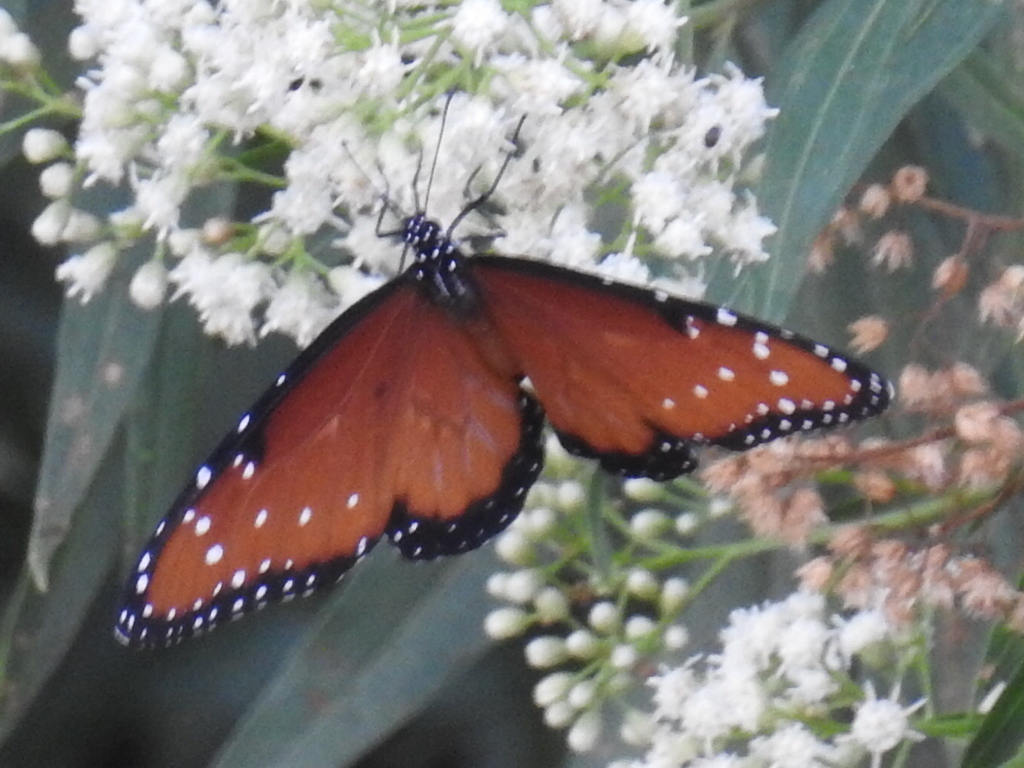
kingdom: Animalia
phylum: Arthropoda
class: Insecta
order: Lepidoptera
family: Nymphalidae
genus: Danaus
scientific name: Danaus gilippus
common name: Queen
